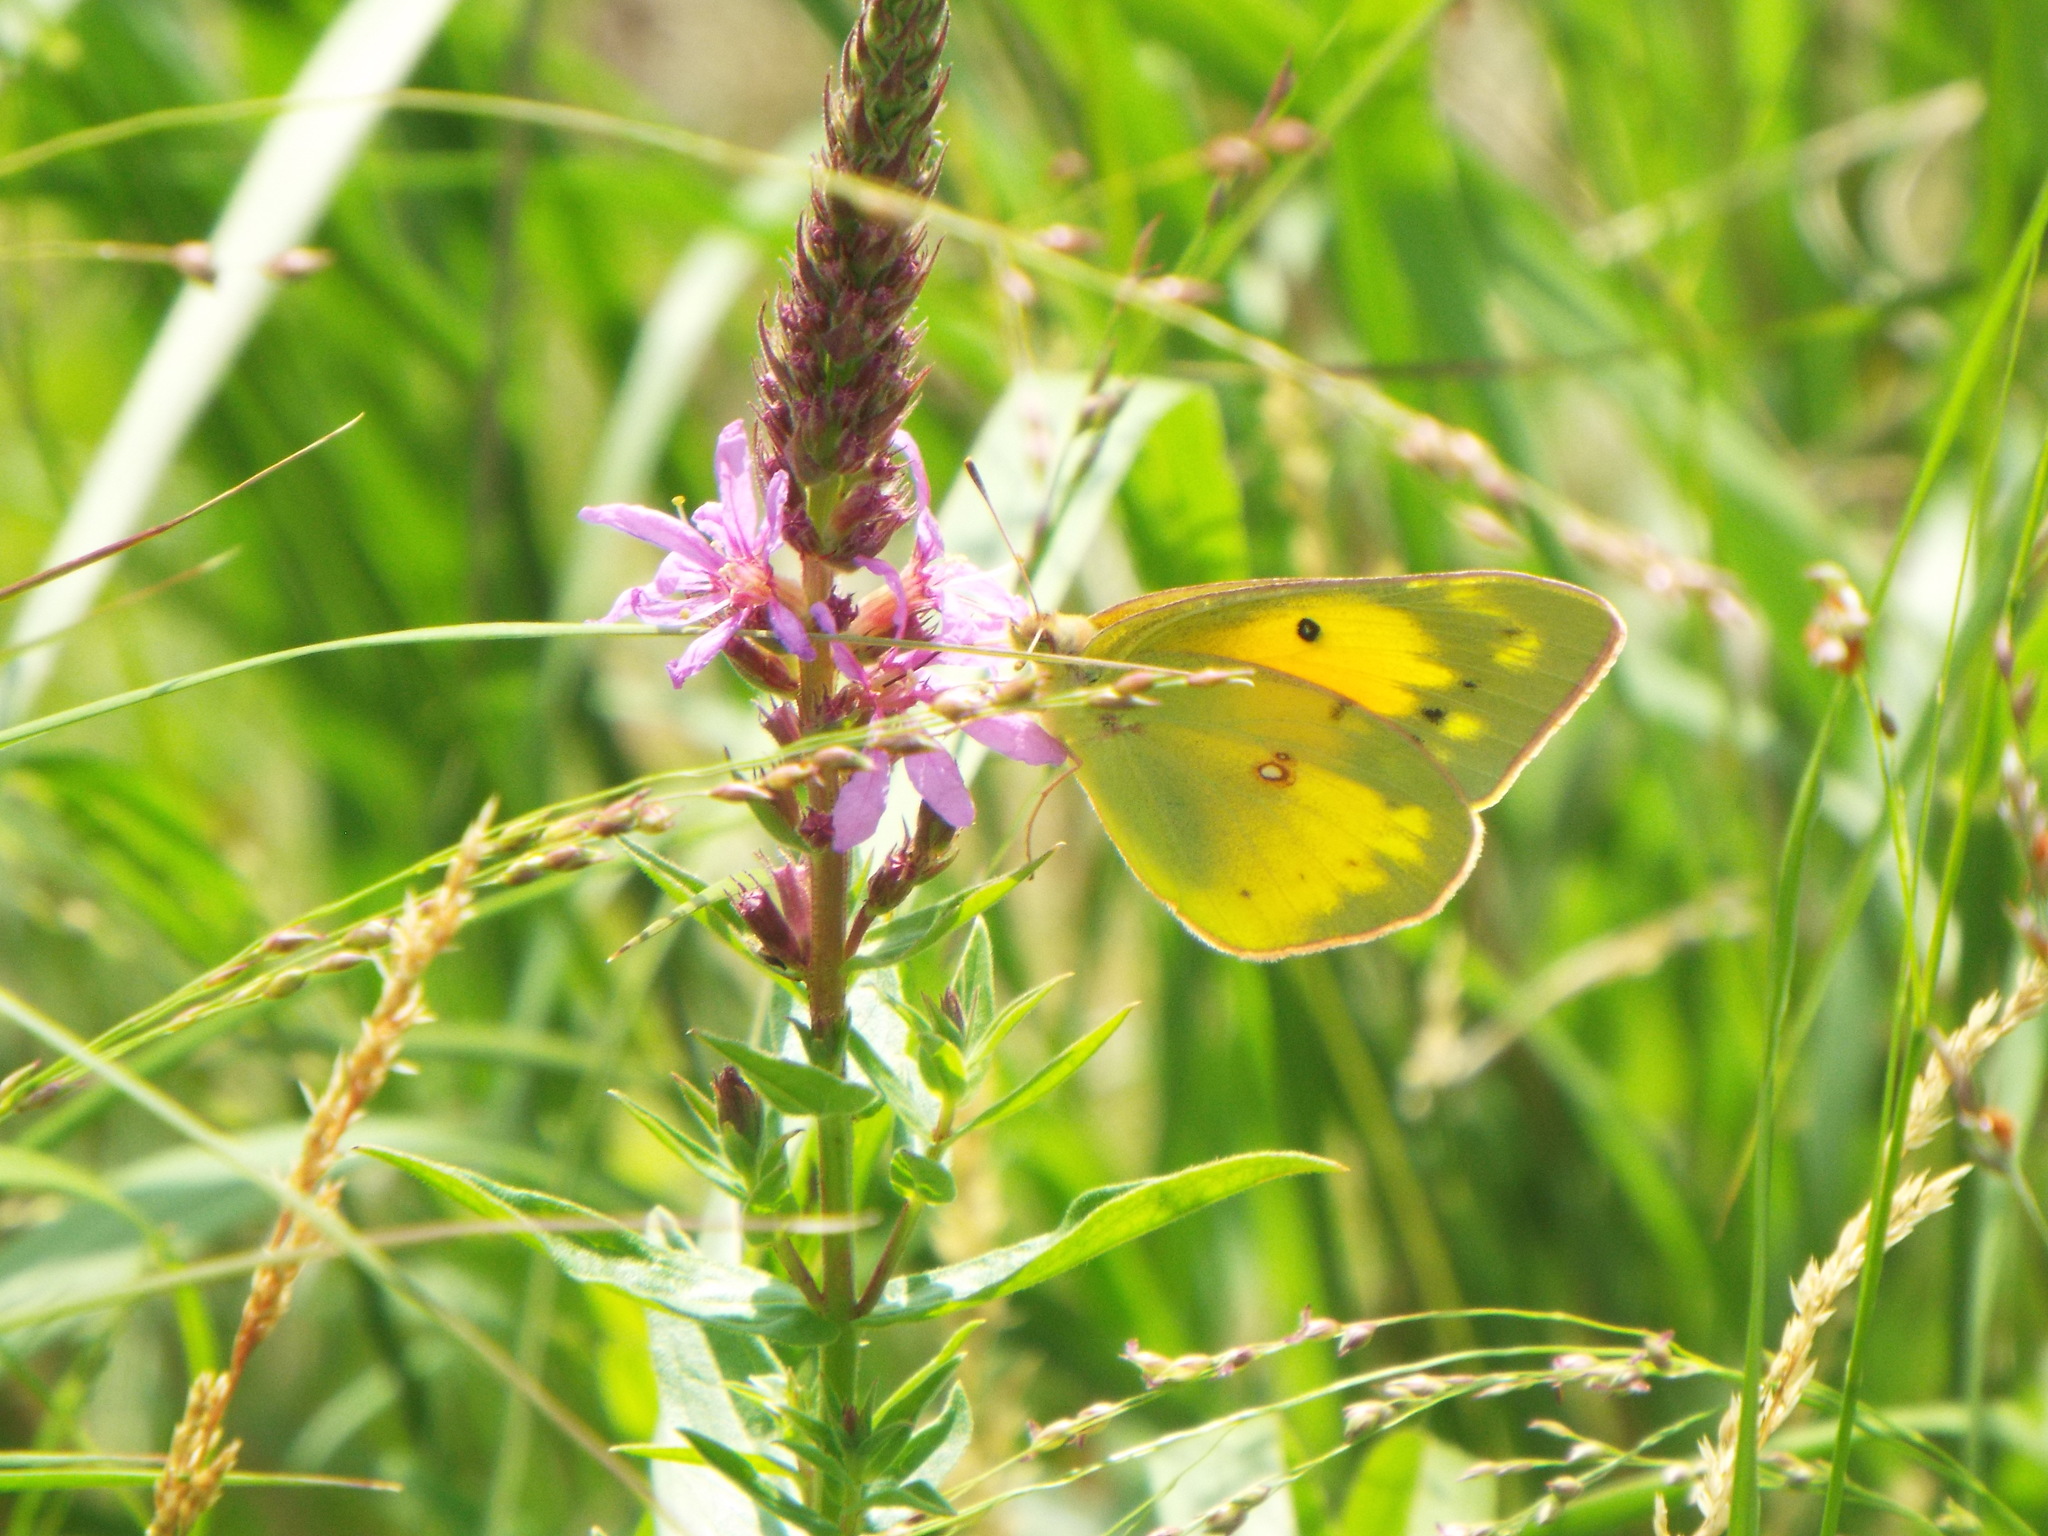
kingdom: Animalia
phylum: Arthropoda
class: Insecta
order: Lepidoptera
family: Pieridae
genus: Colias
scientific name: Colias eurytheme
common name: Alfalfa butterfly
